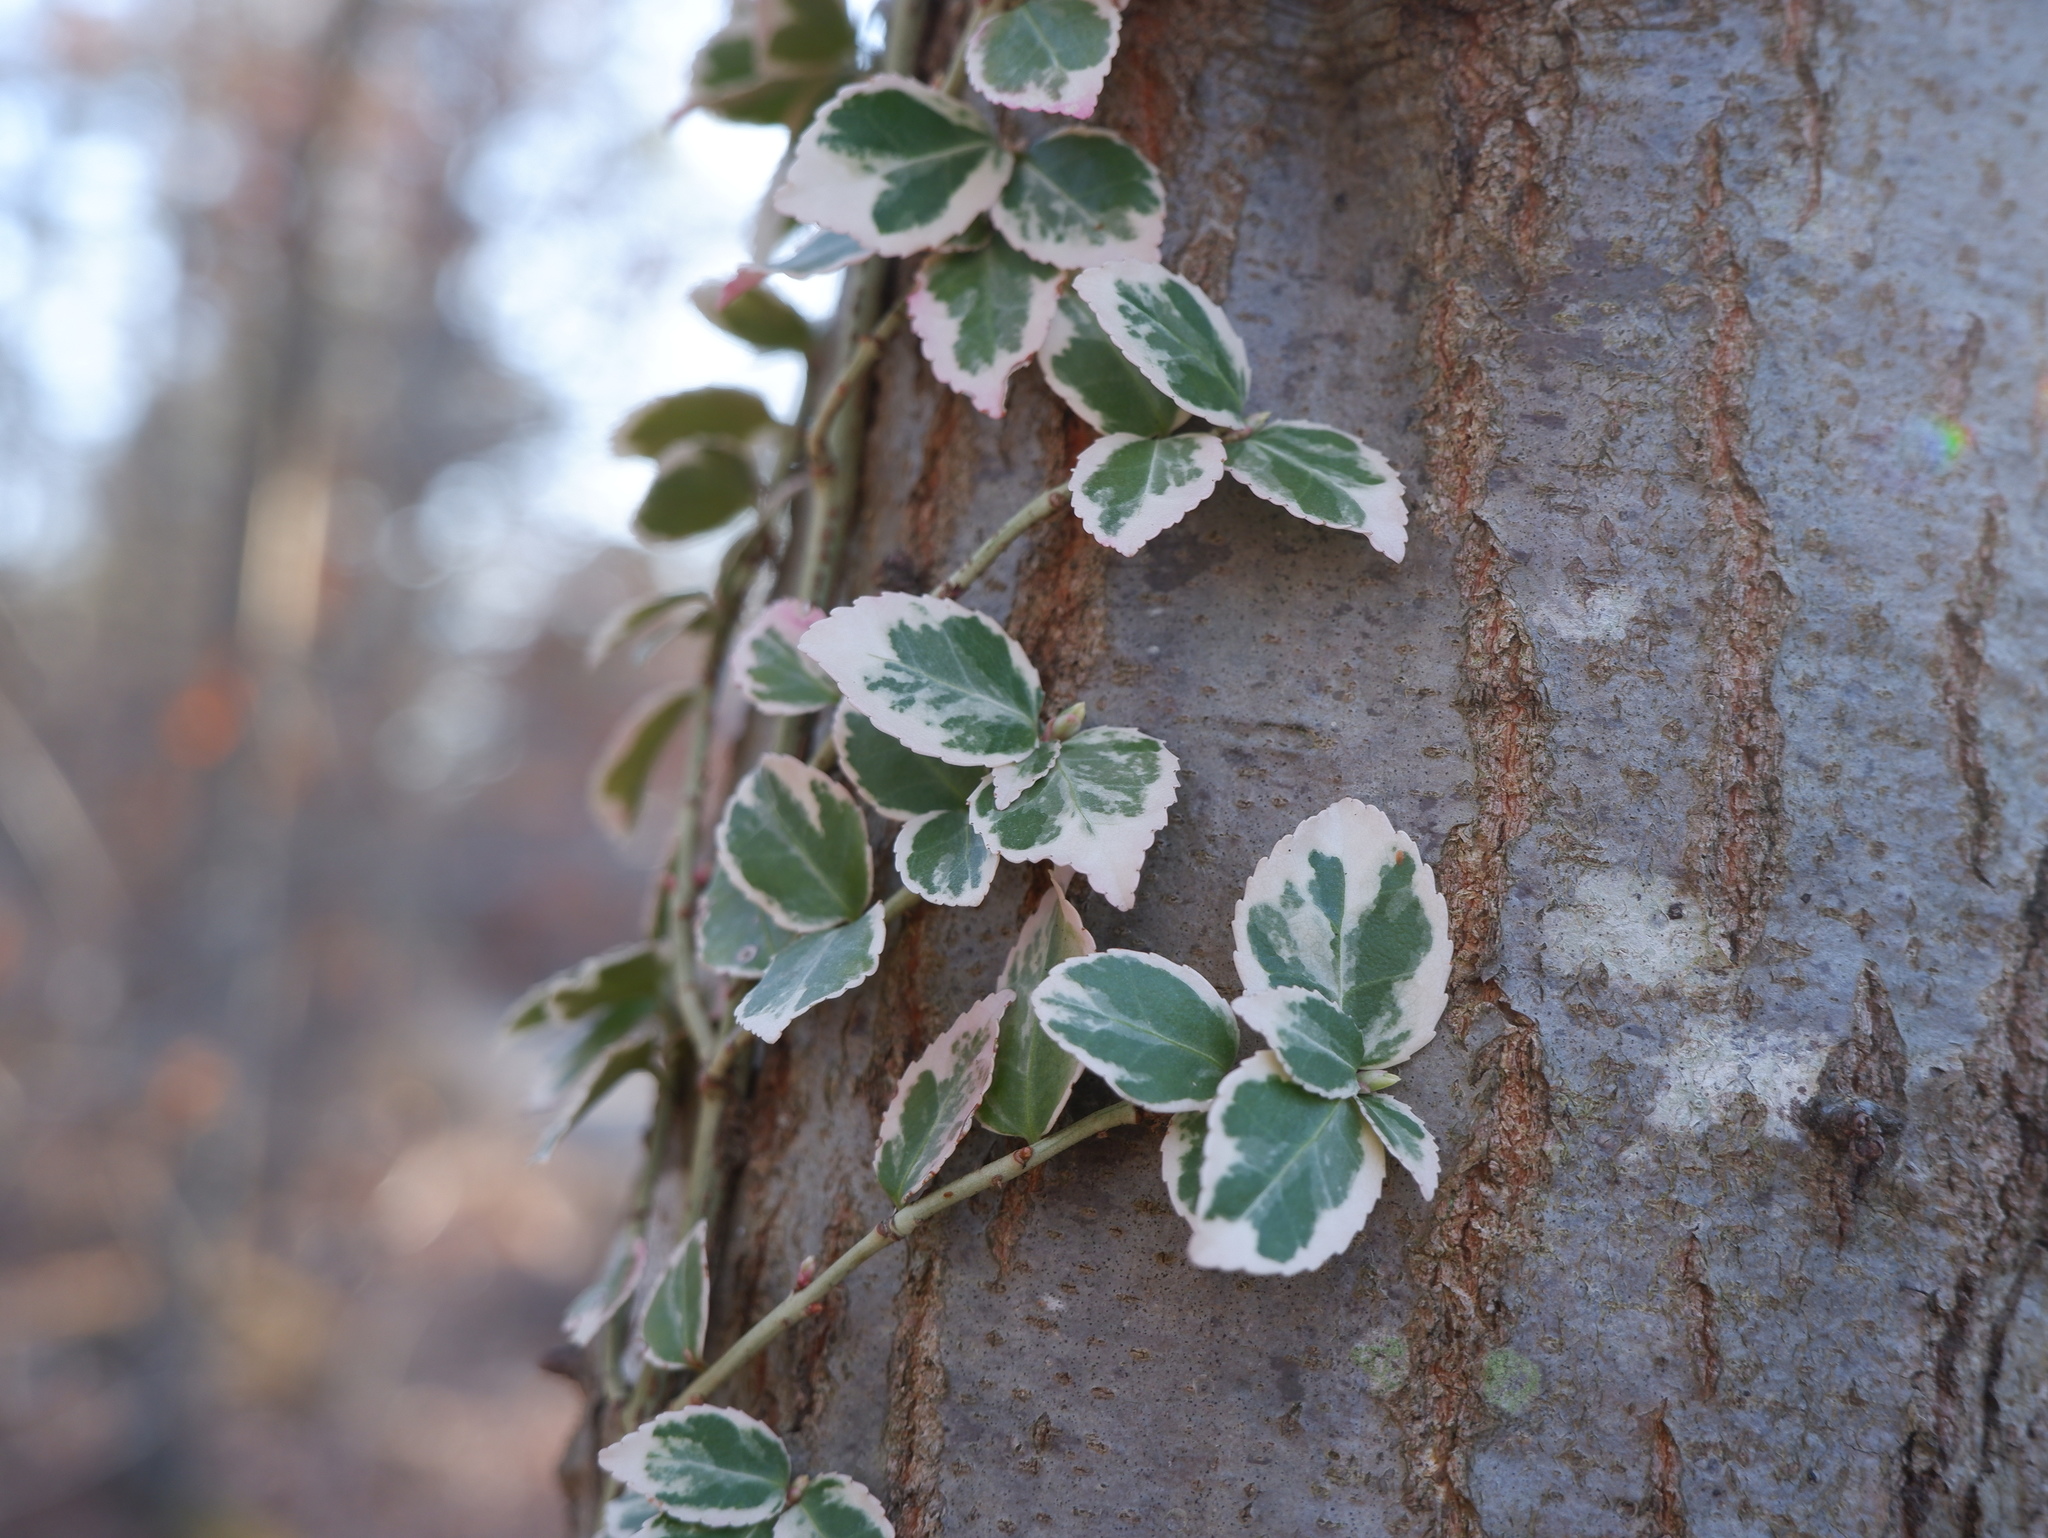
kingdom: Plantae
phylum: Tracheophyta
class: Magnoliopsida
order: Celastrales
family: Celastraceae
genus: Euonymus
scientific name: Euonymus fortunei
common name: Climbing euonymus
